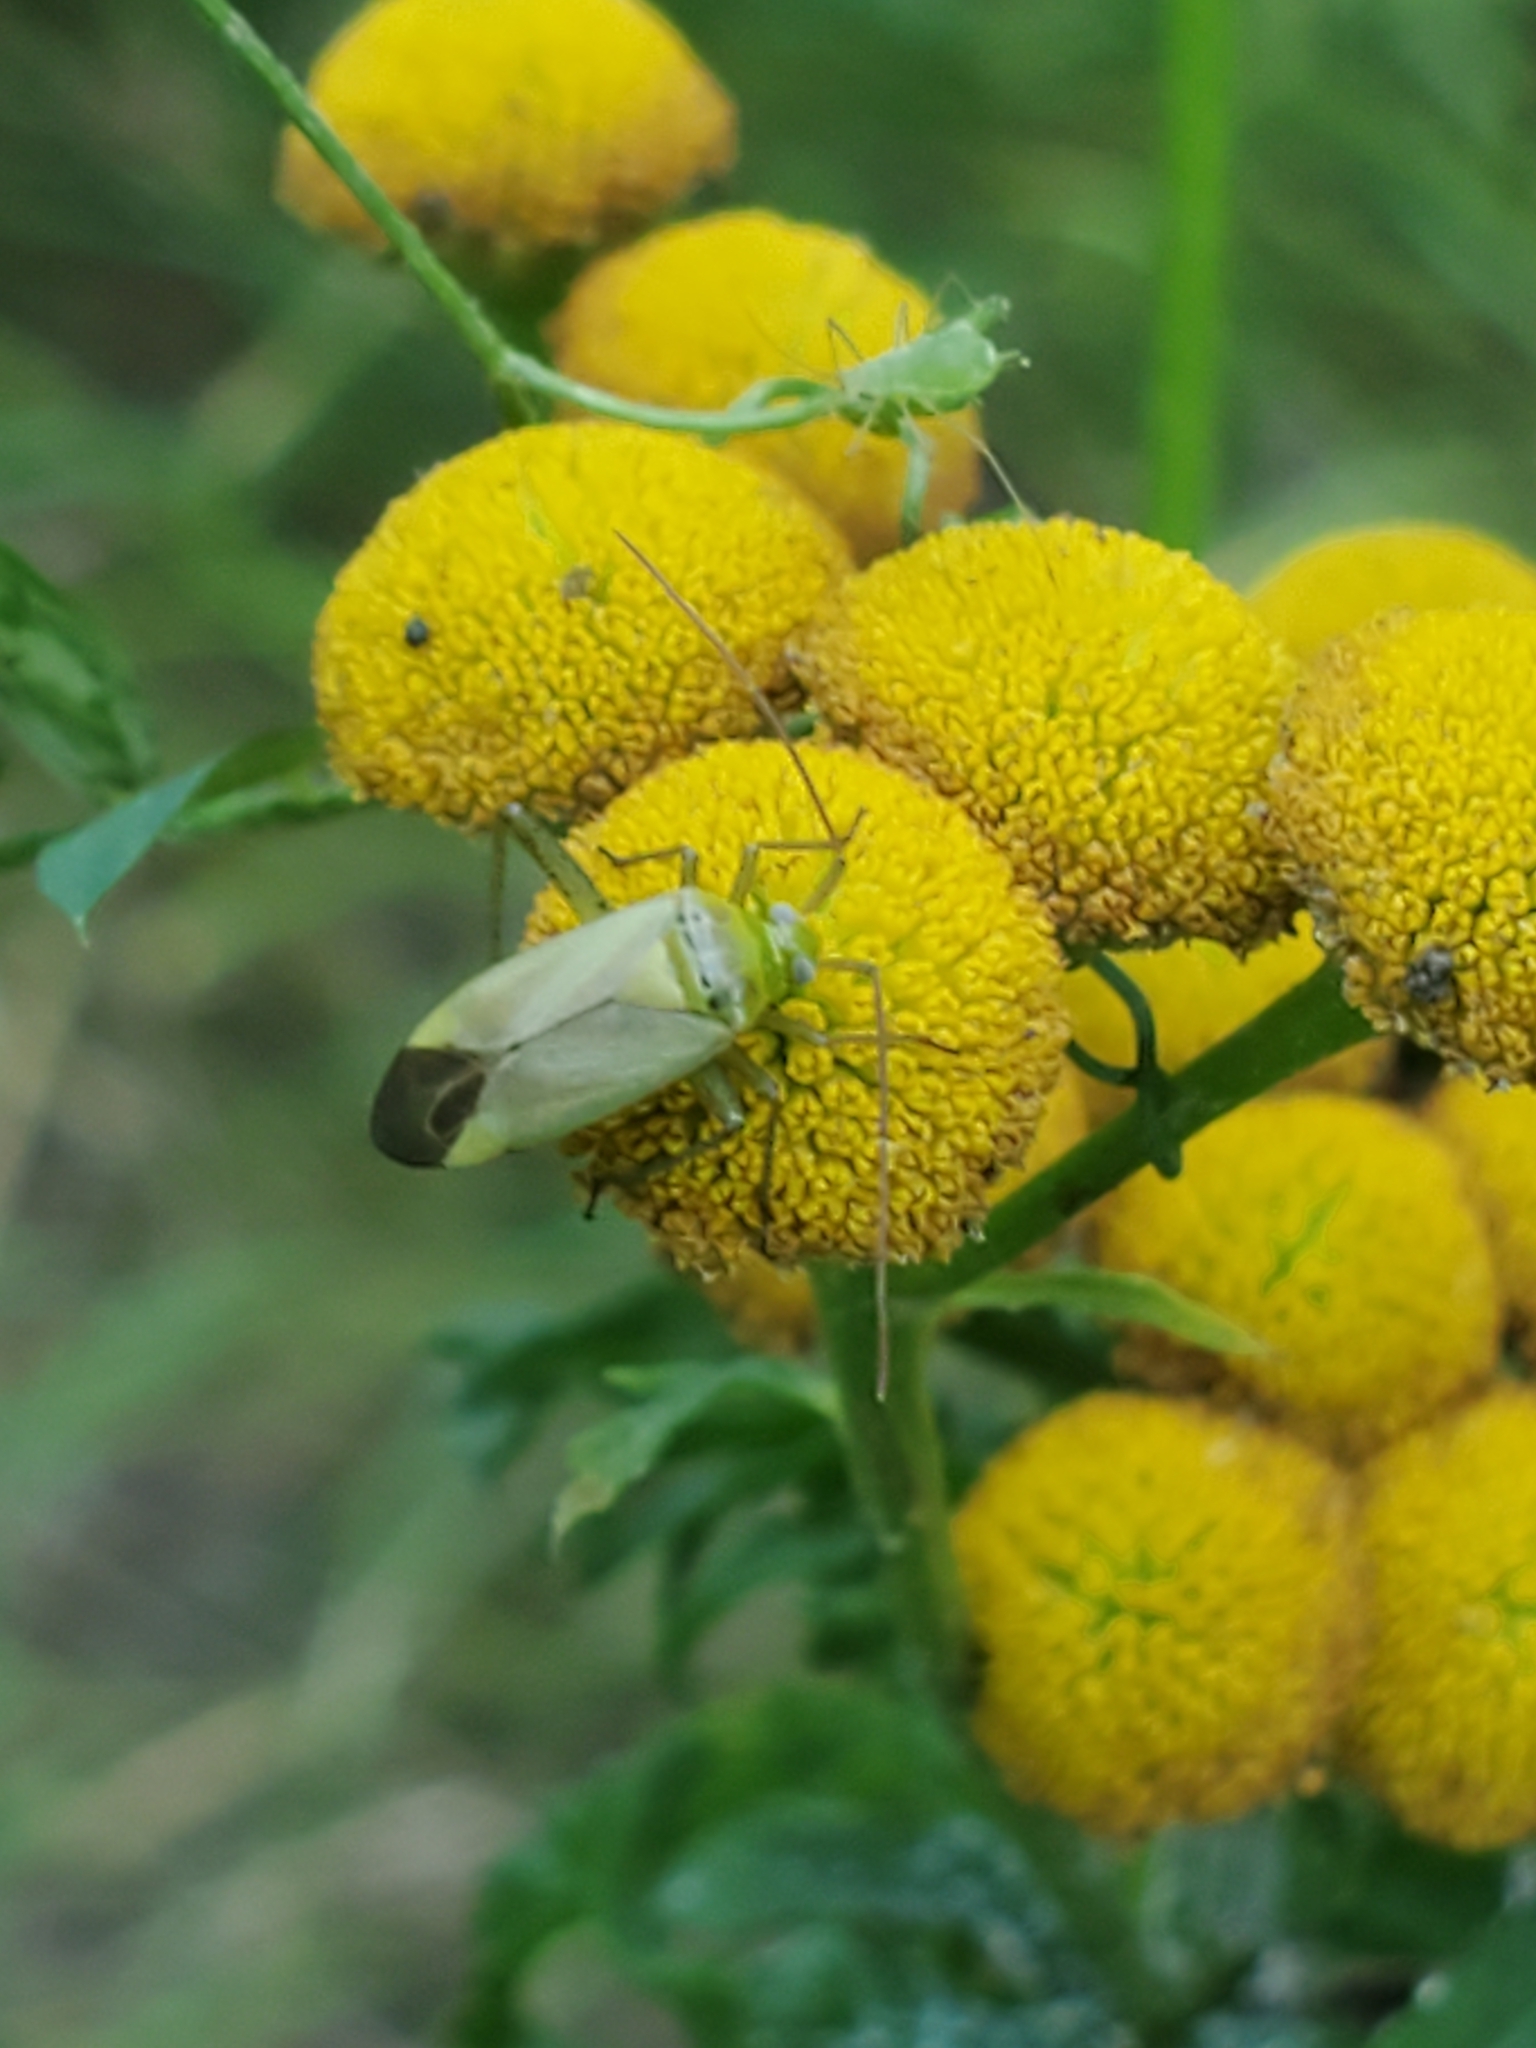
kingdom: Animalia
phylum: Arthropoda
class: Insecta
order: Hemiptera
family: Miridae
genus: Adelphocoris
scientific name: Adelphocoris lineolatus
